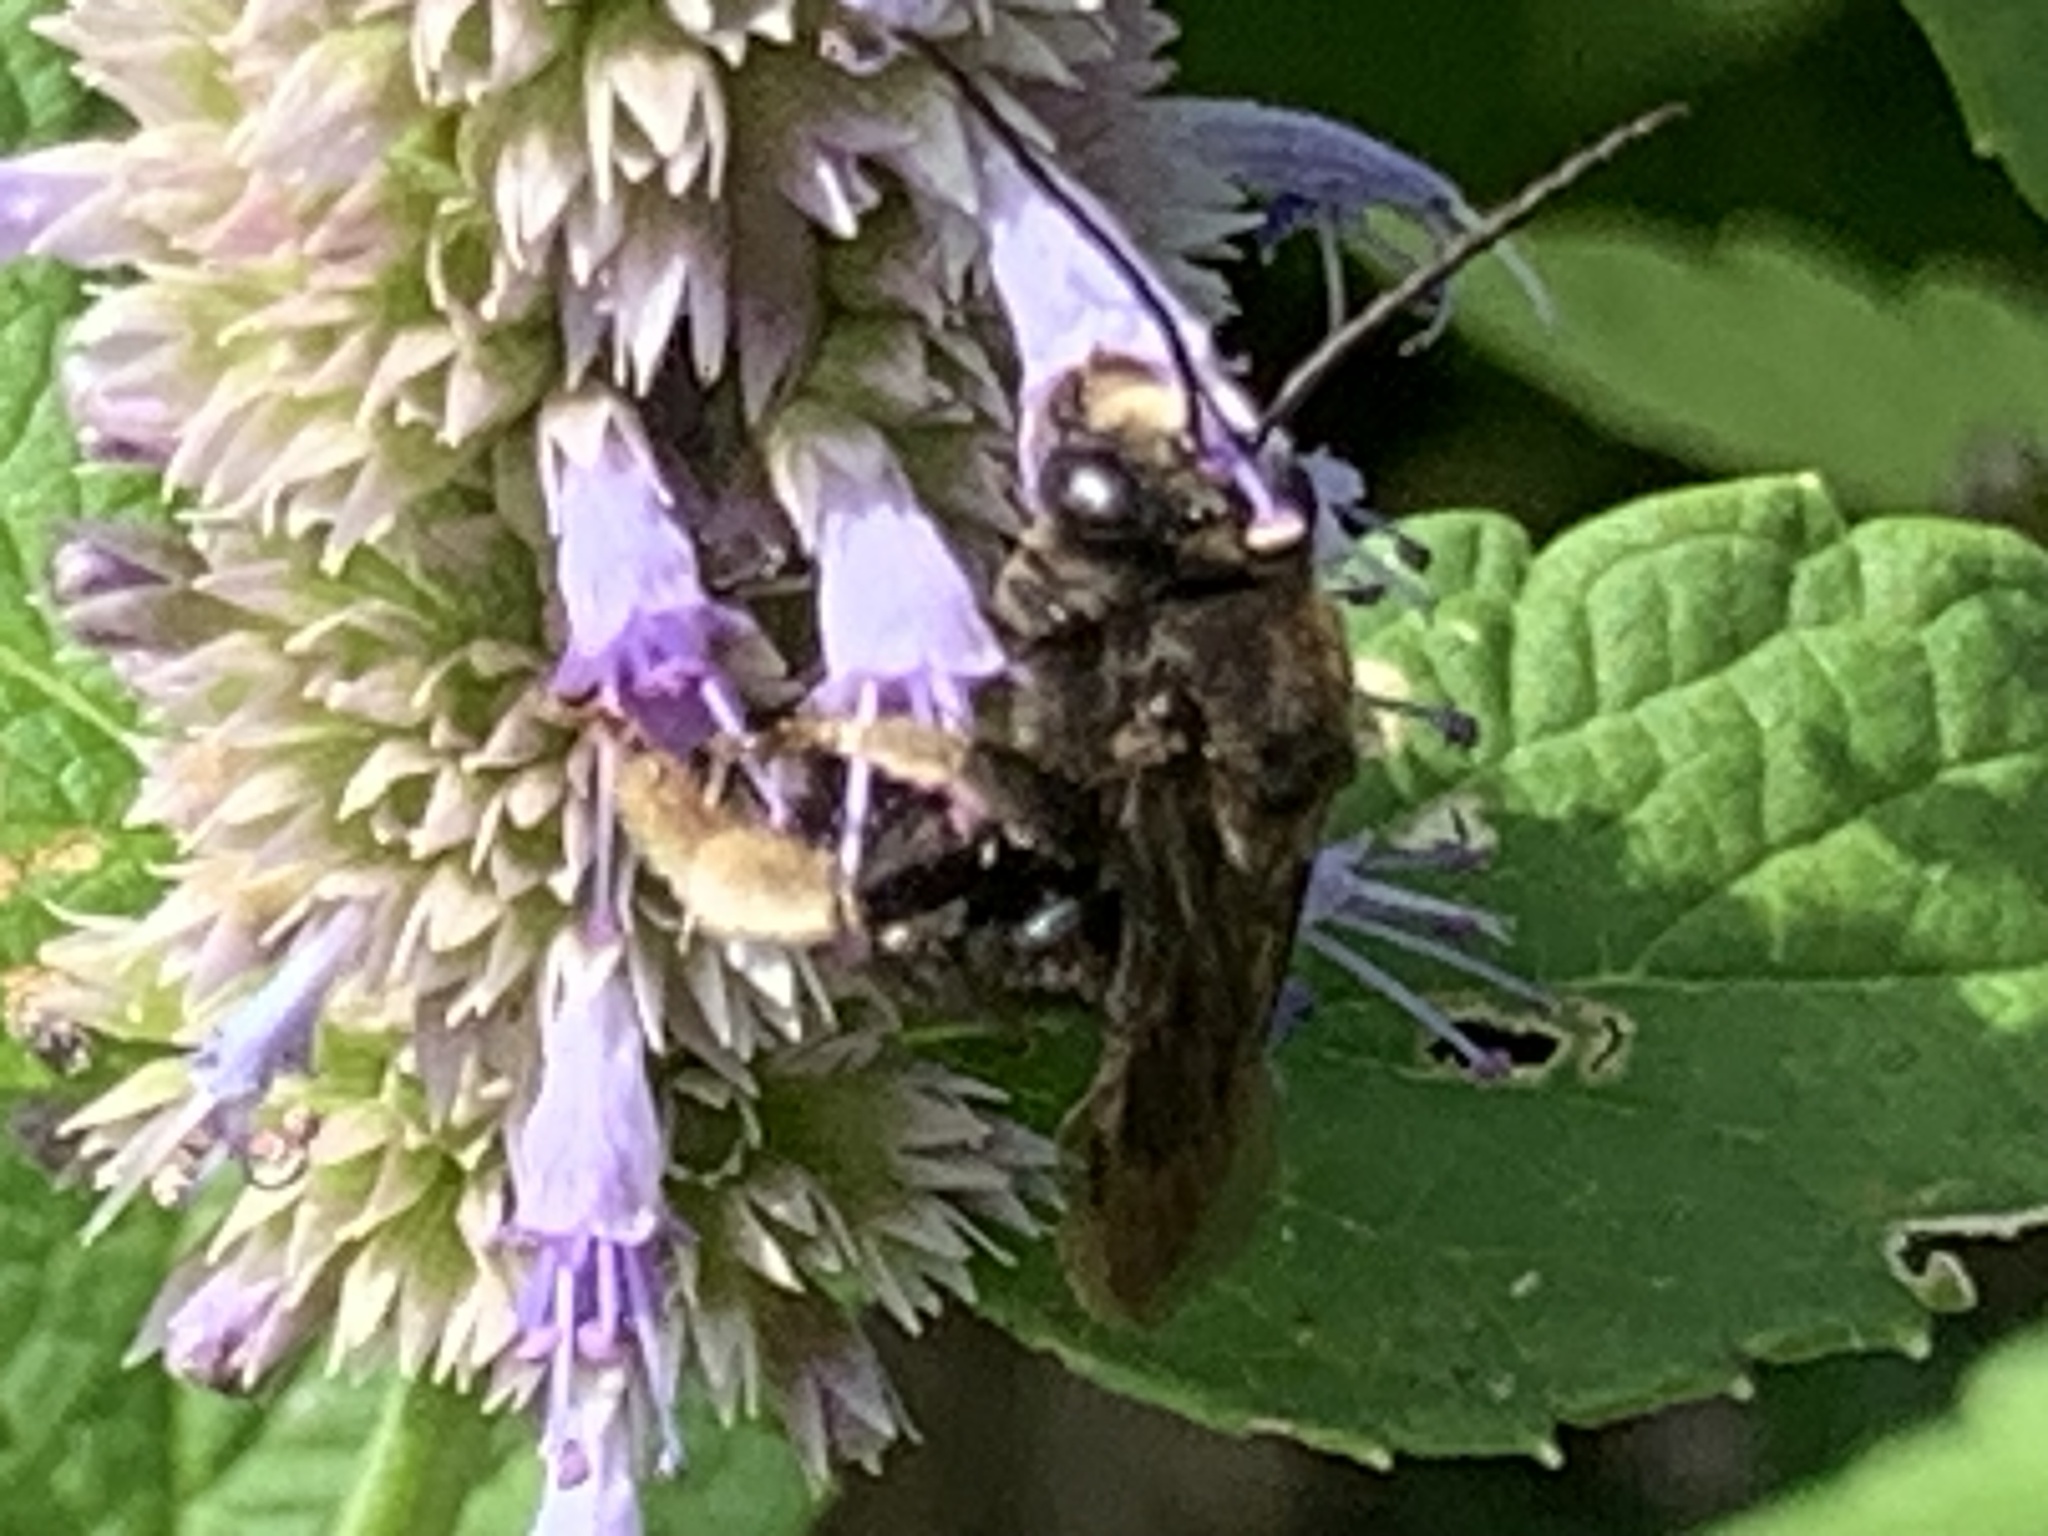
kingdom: Animalia
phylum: Arthropoda
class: Insecta
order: Hymenoptera
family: Apidae
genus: Melissodes
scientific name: Melissodes bimaculatus
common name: Two-spotted long-horned bee
